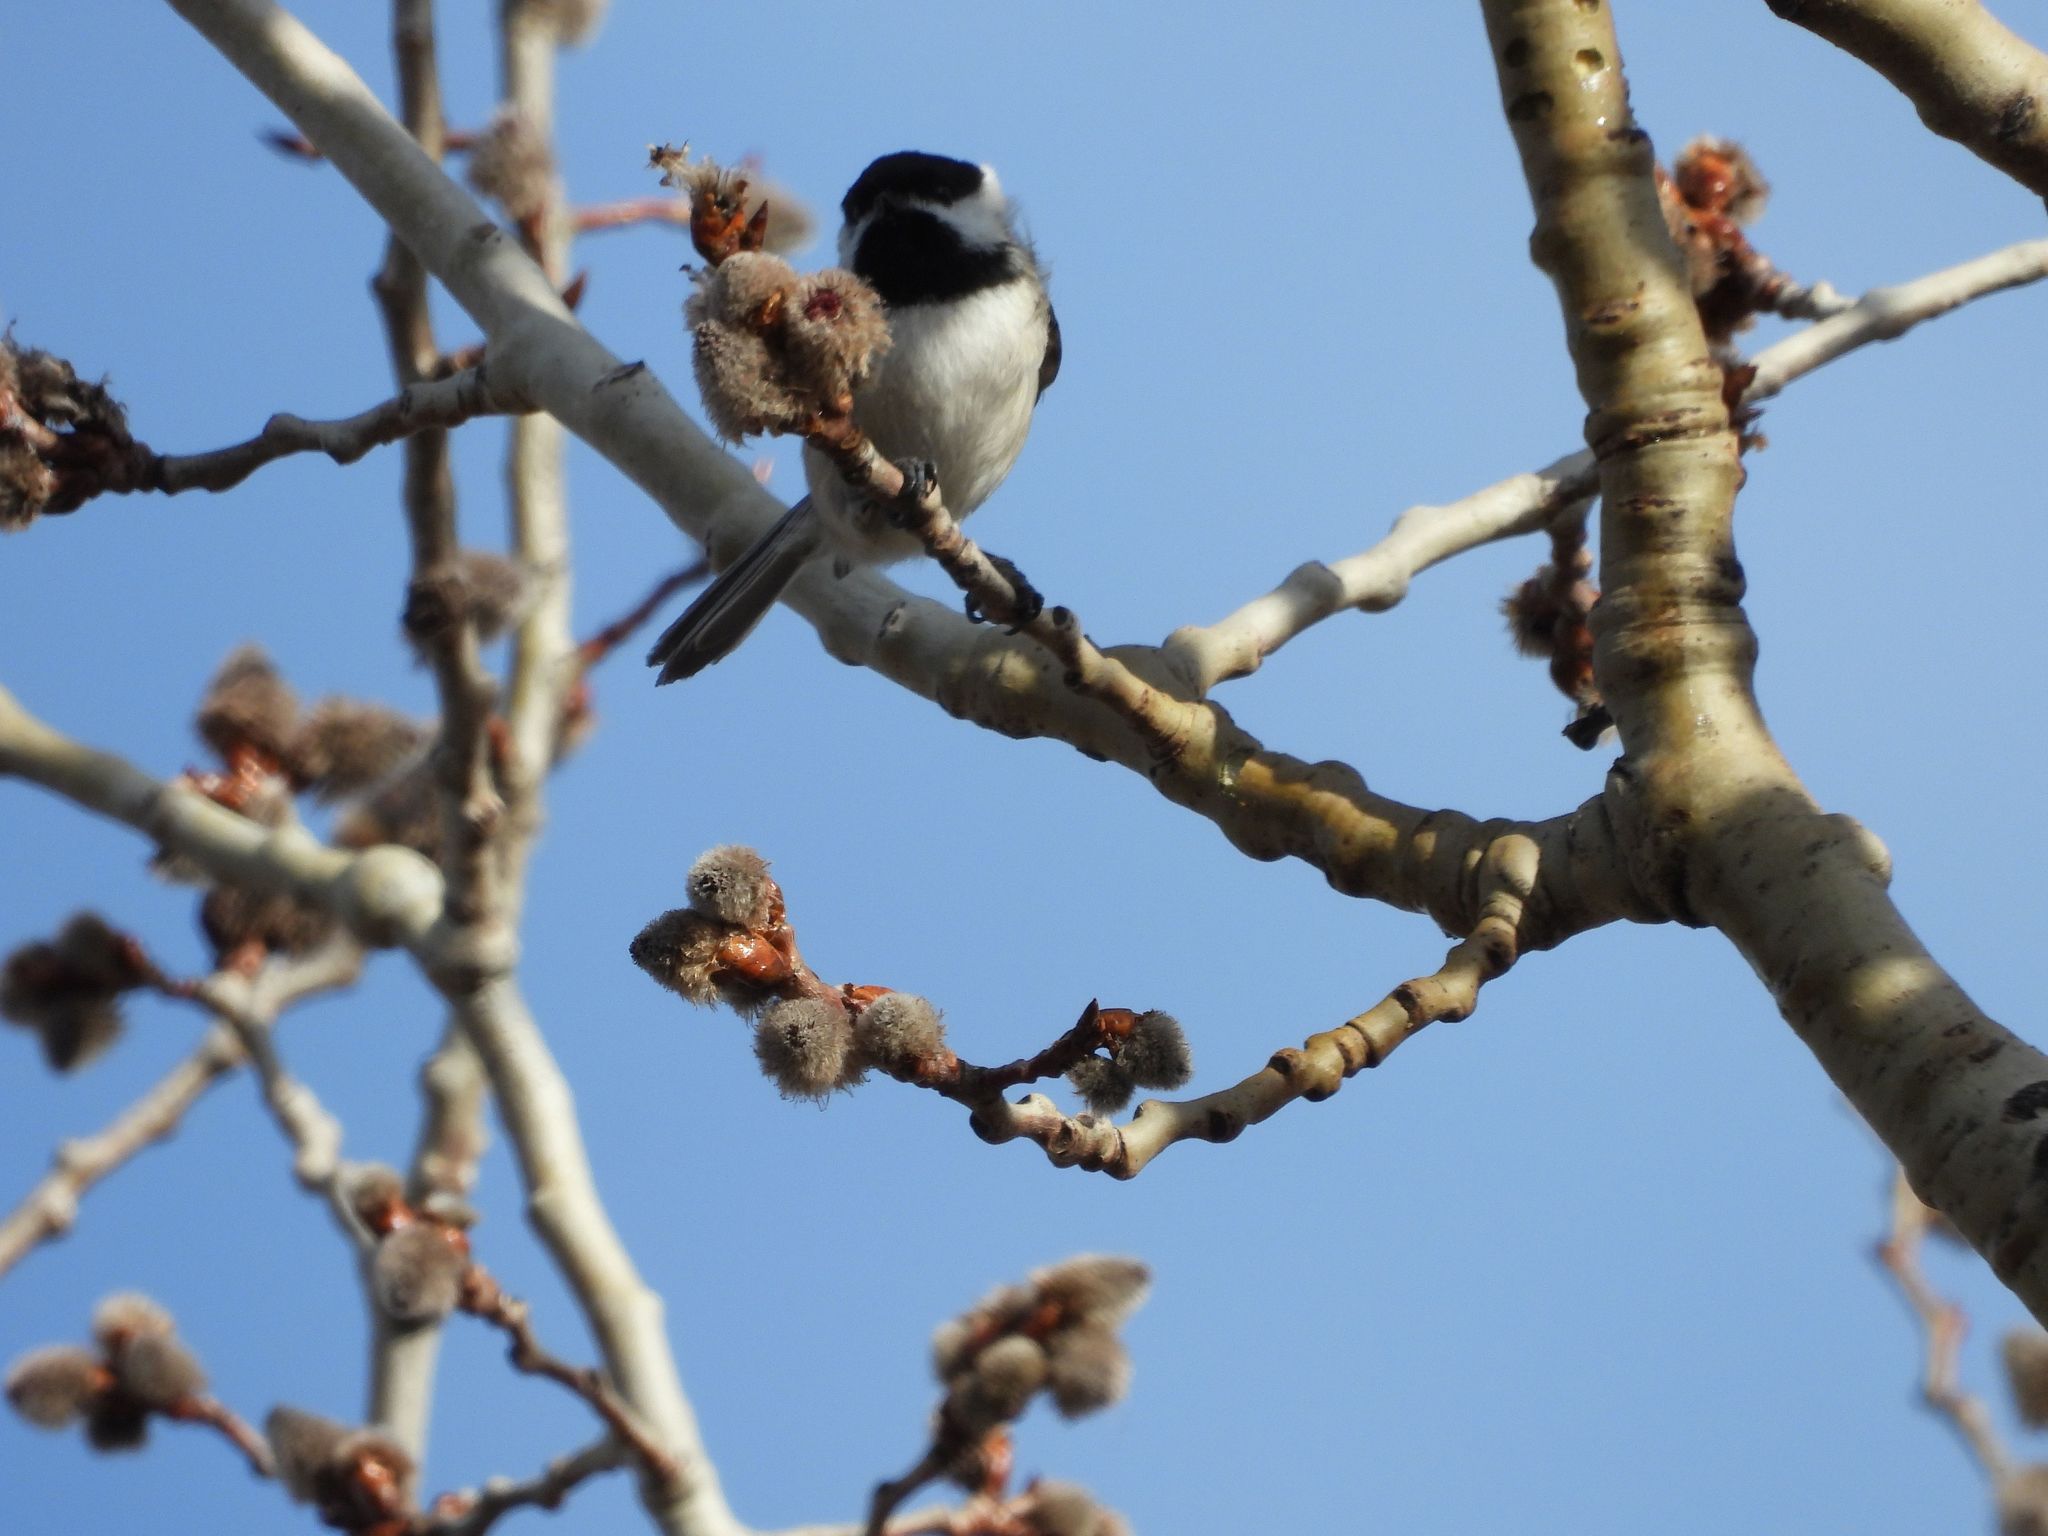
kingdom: Animalia
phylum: Chordata
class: Aves
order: Passeriformes
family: Paridae
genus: Poecile
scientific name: Poecile atricapillus
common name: Black-capped chickadee
